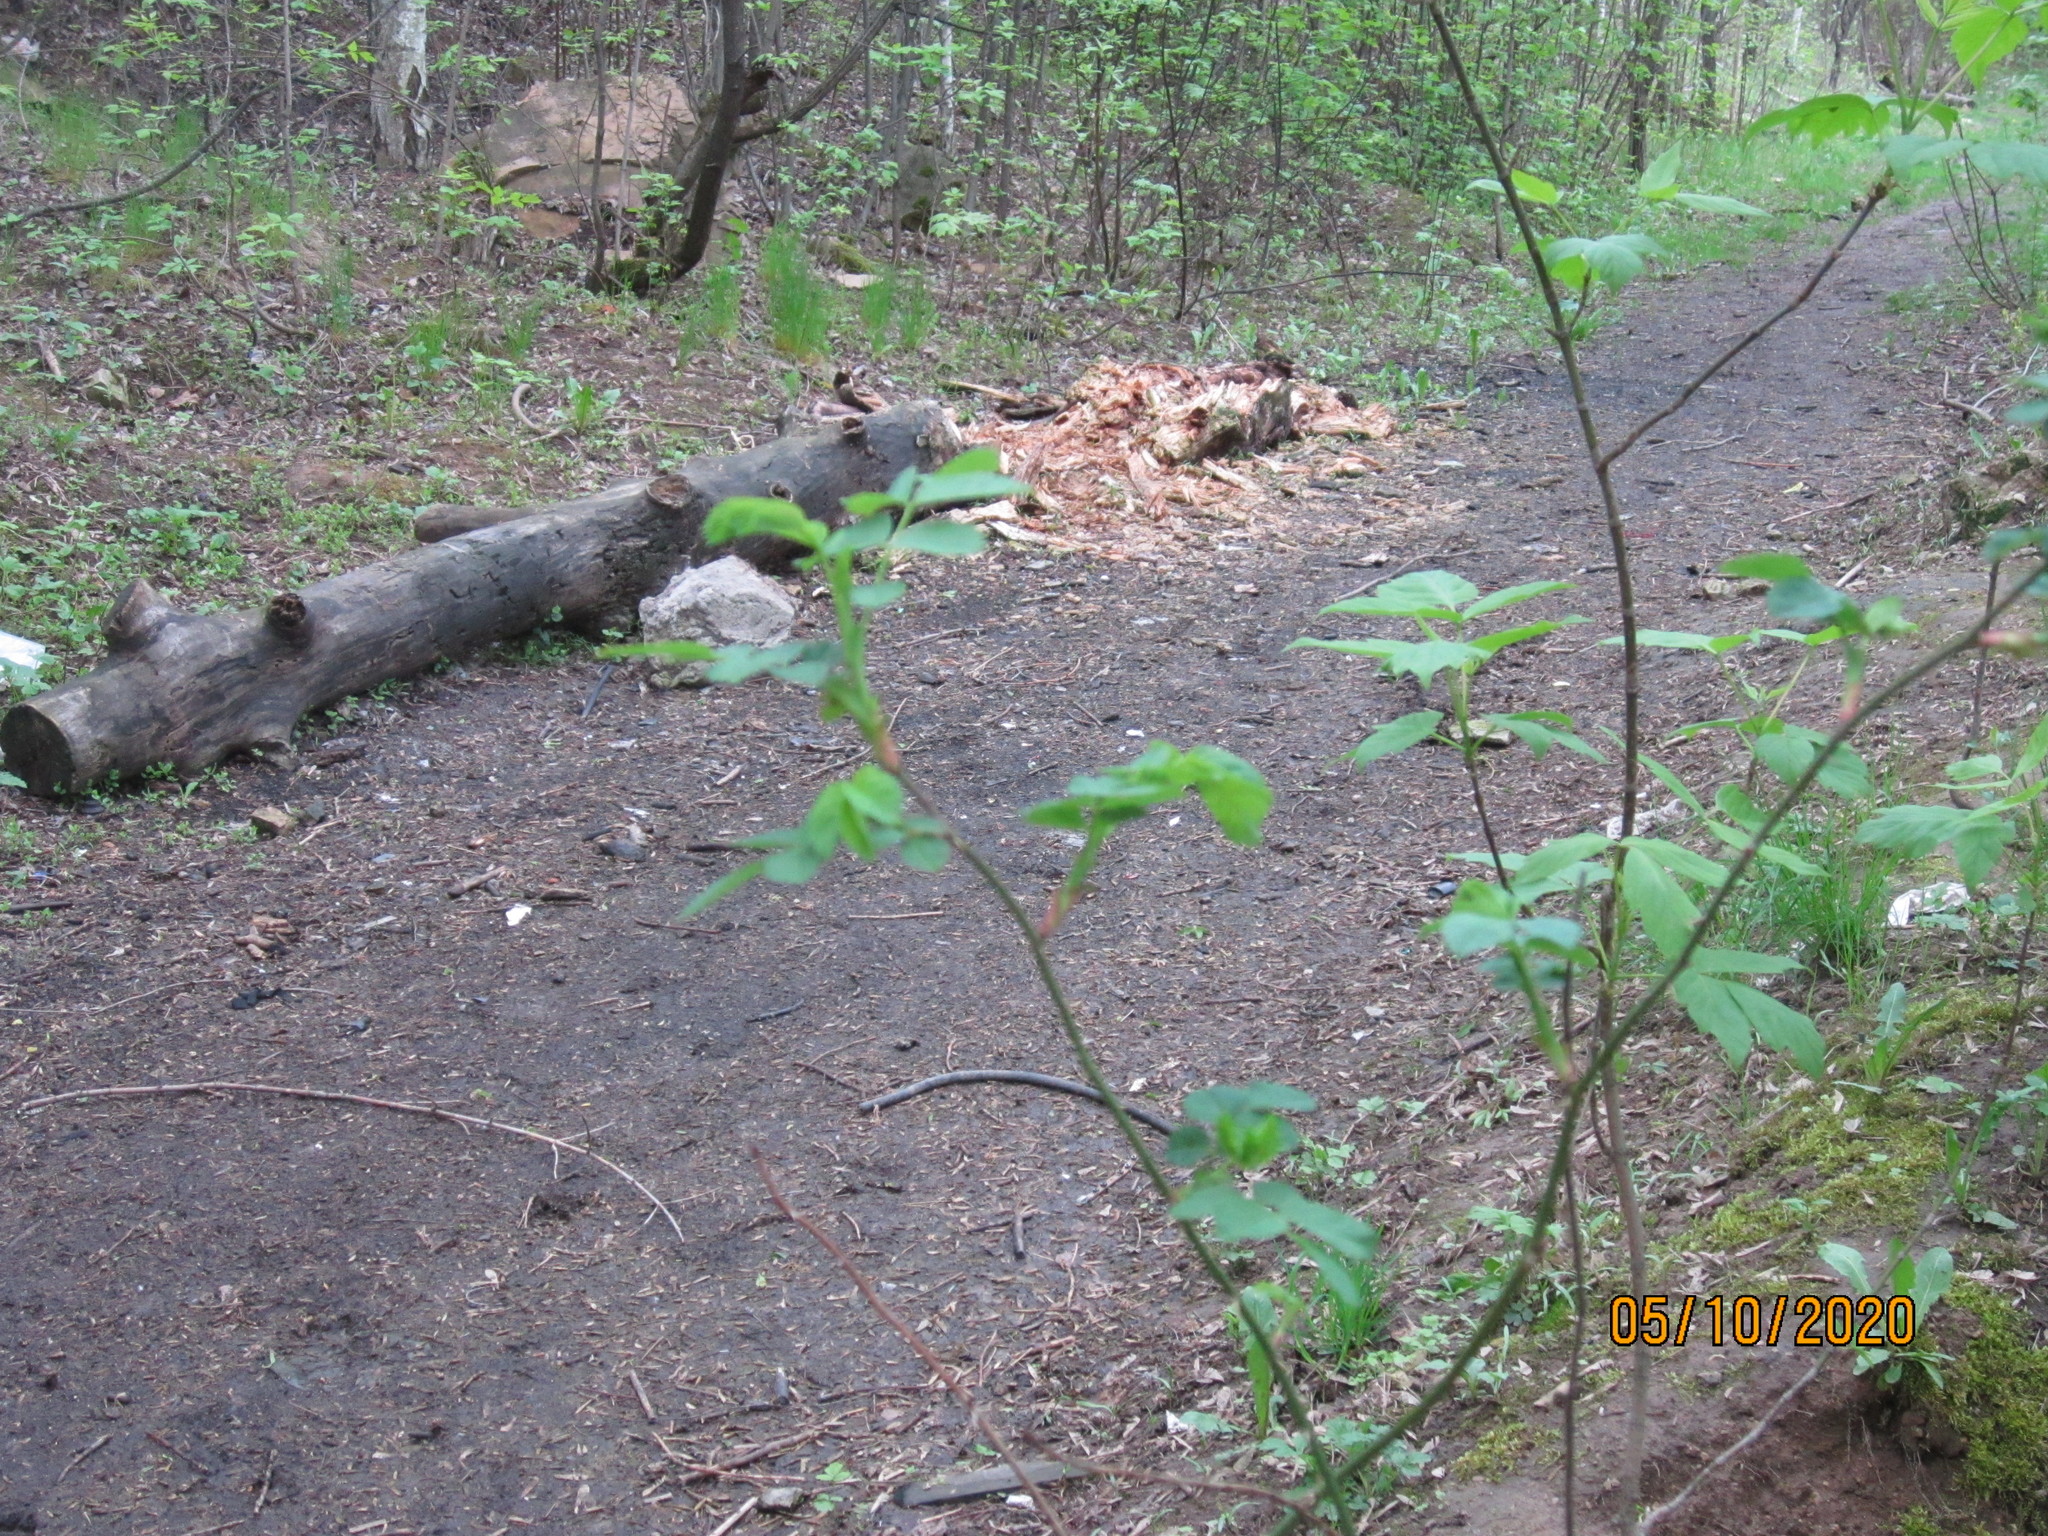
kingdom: Plantae
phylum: Tracheophyta
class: Magnoliopsida
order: Rosales
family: Rosaceae
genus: Rosa
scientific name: Rosa
